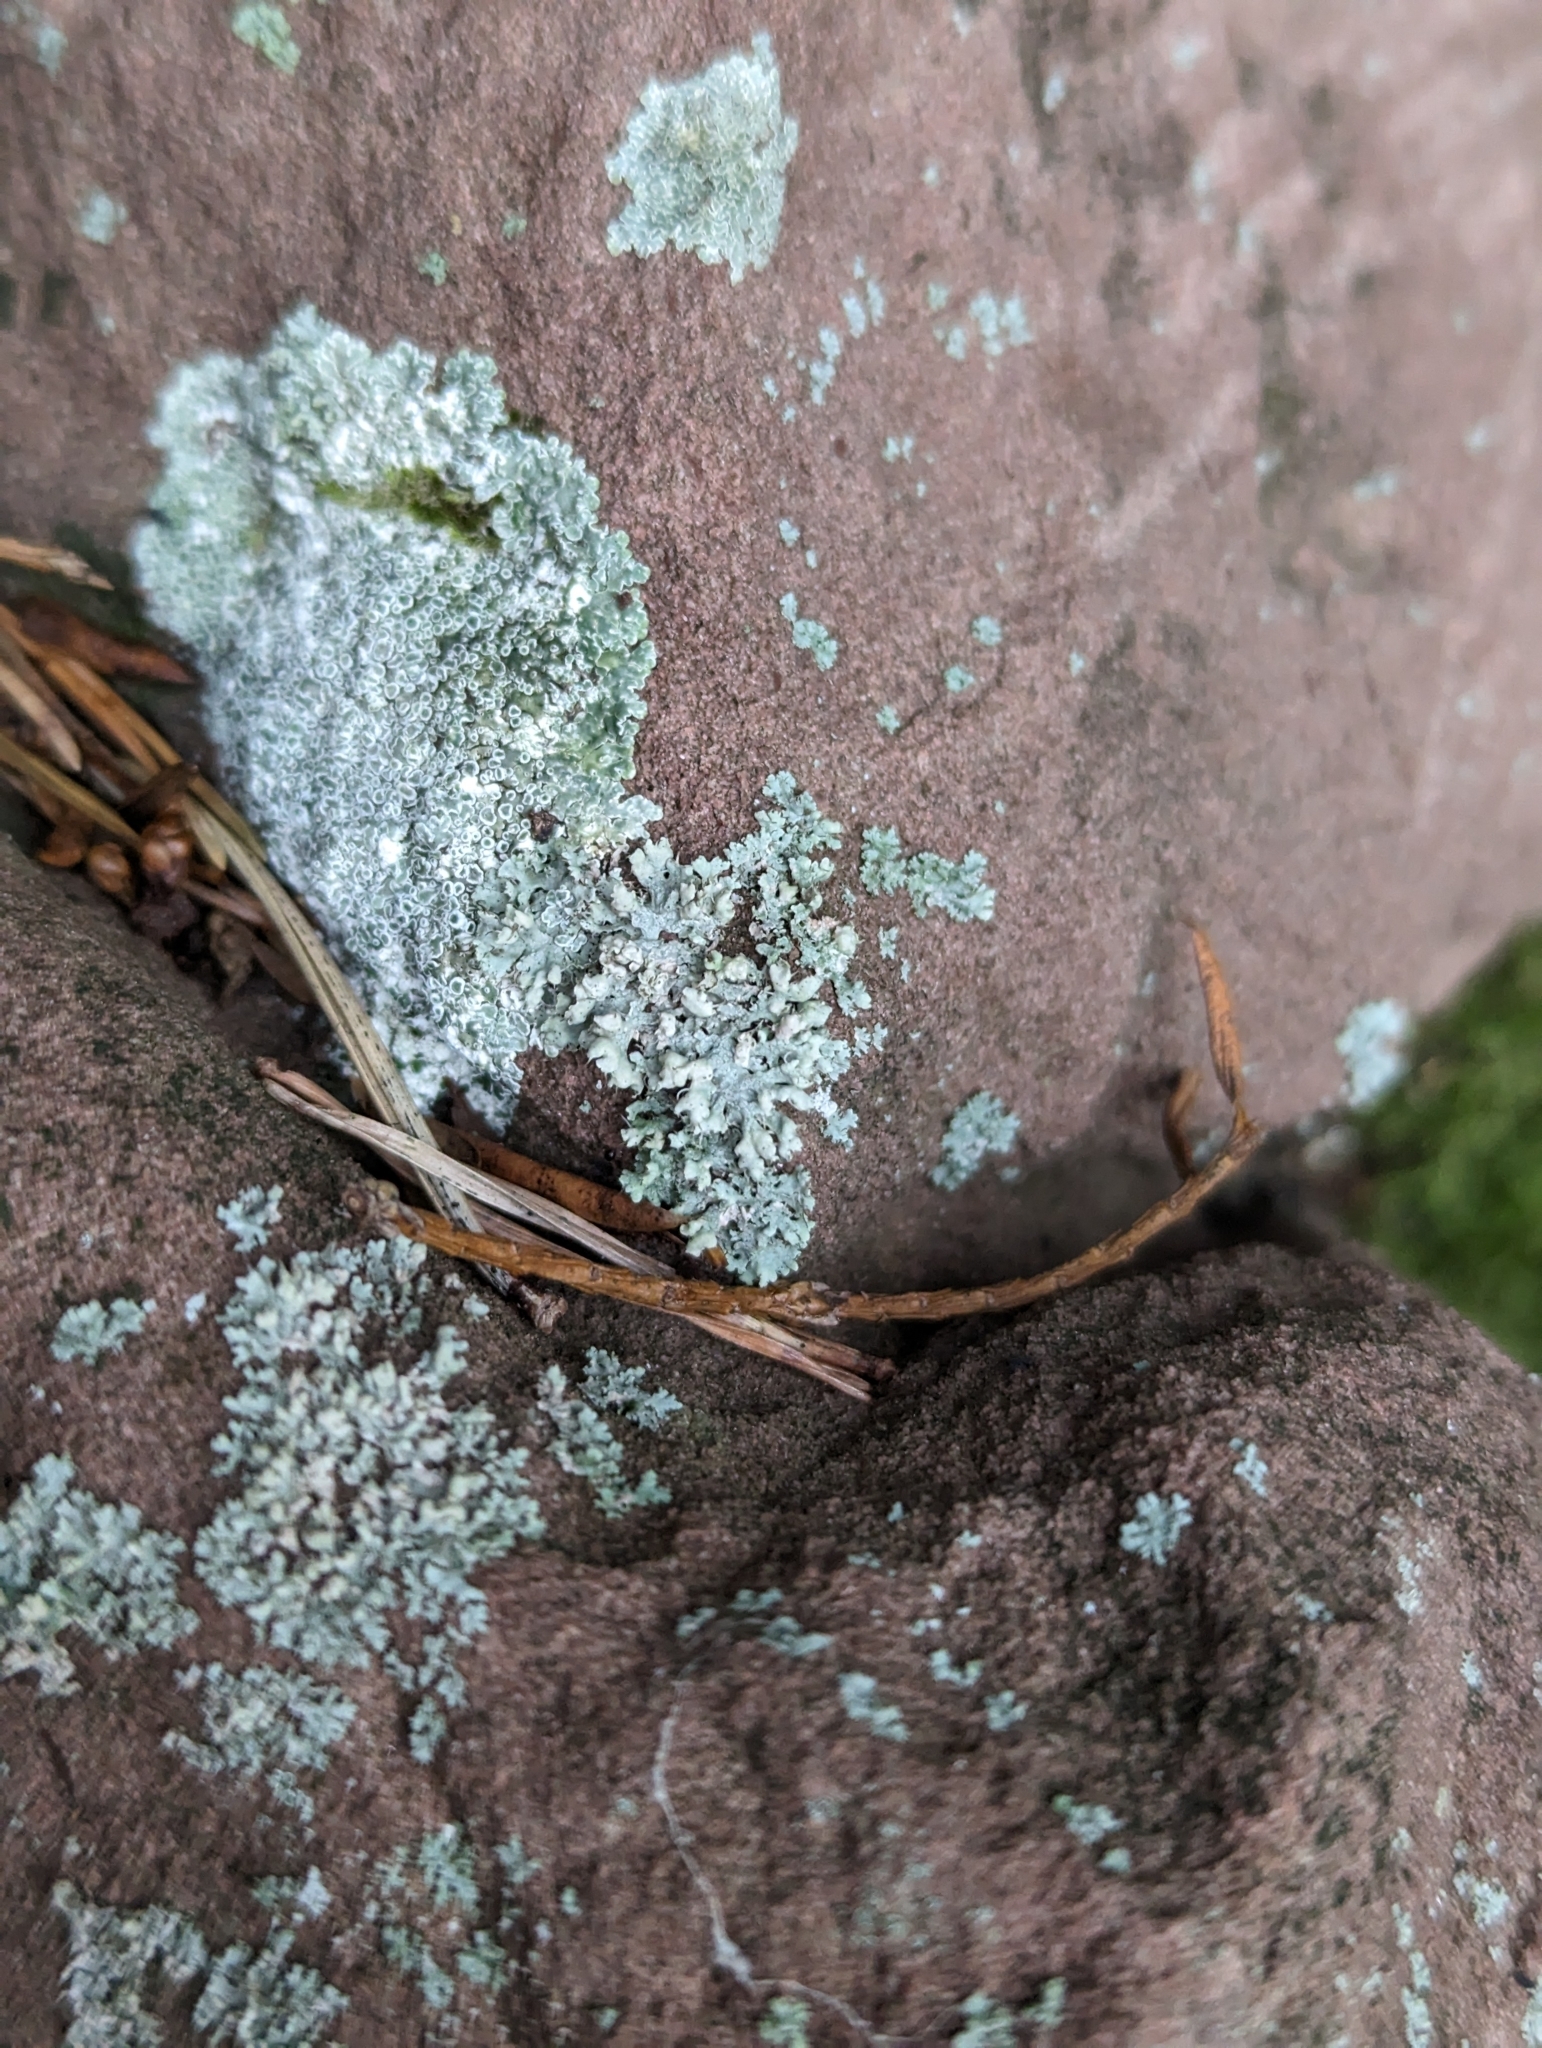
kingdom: Fungi
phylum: Ascomycota
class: Lecanoromycetes
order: Caliciales
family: Physciaceae
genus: Physcia
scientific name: Physcia adscendens
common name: Hooded rosette lichen
